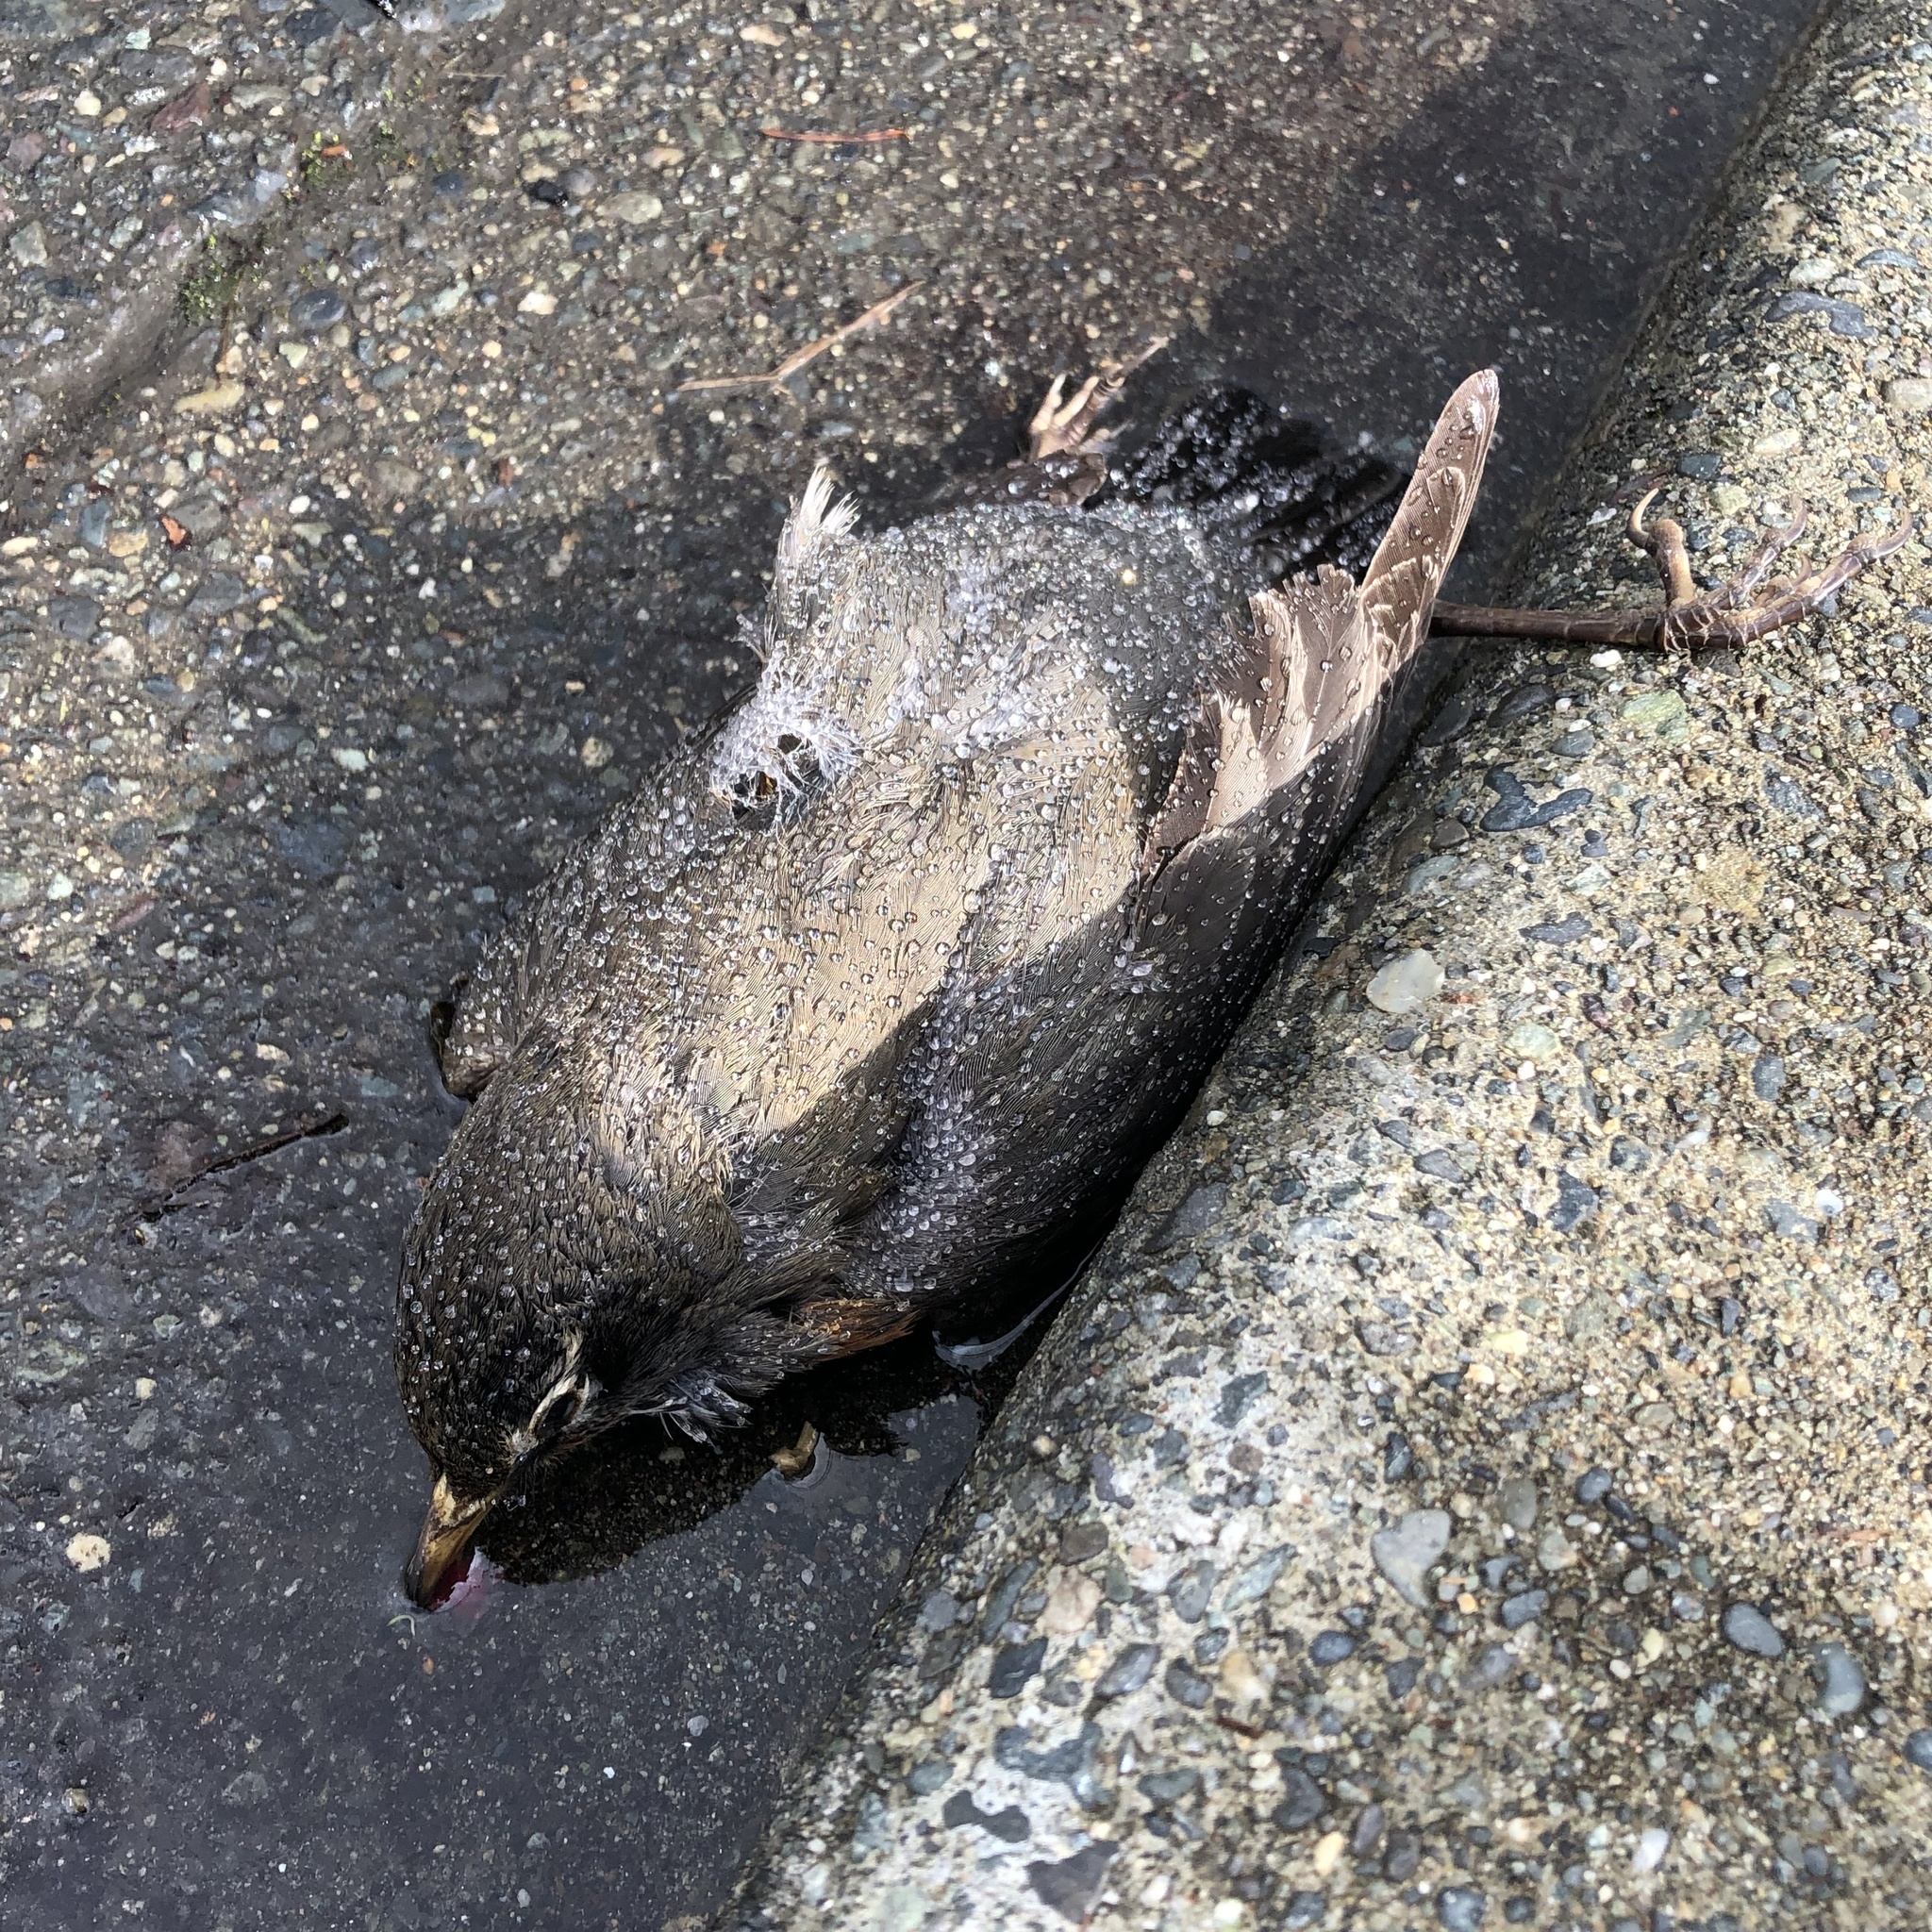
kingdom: Animalia
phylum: Chordata
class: Aves
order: Passeriformes
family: Turdidae
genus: Turdus
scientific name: Turdus migratorius
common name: American robin
